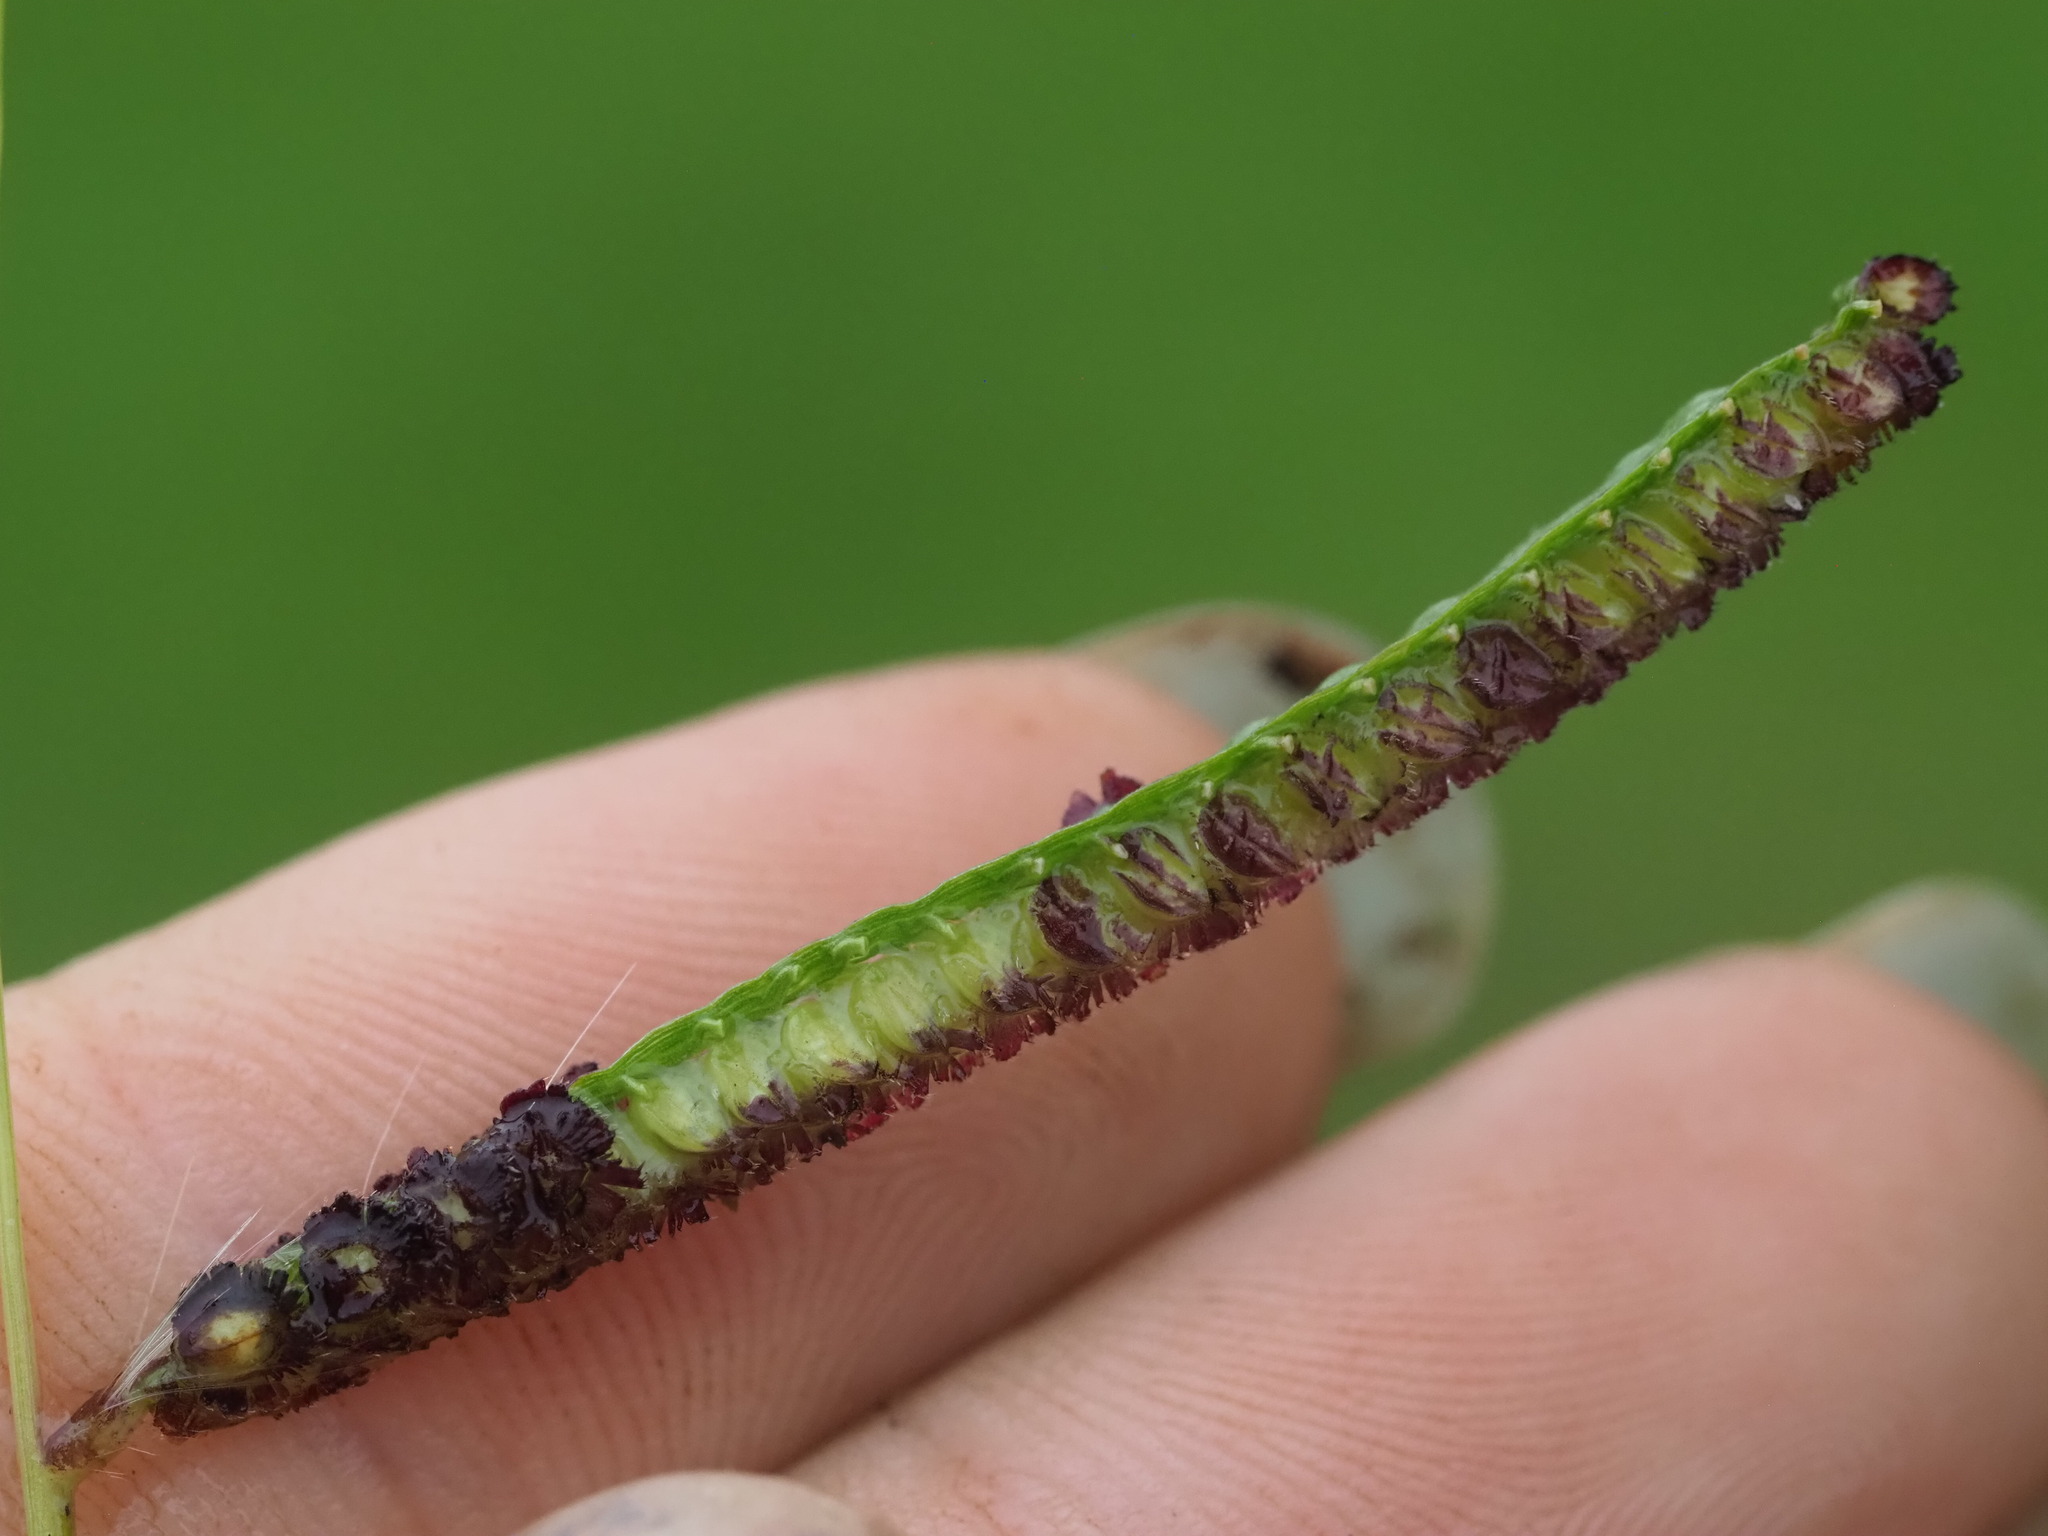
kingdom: Plantae
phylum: Tracheophyta
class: Liliopsida
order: Poales
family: Poaceae
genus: Paspalum
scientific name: Paspalum fimbriatum
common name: Panama crowngrass
